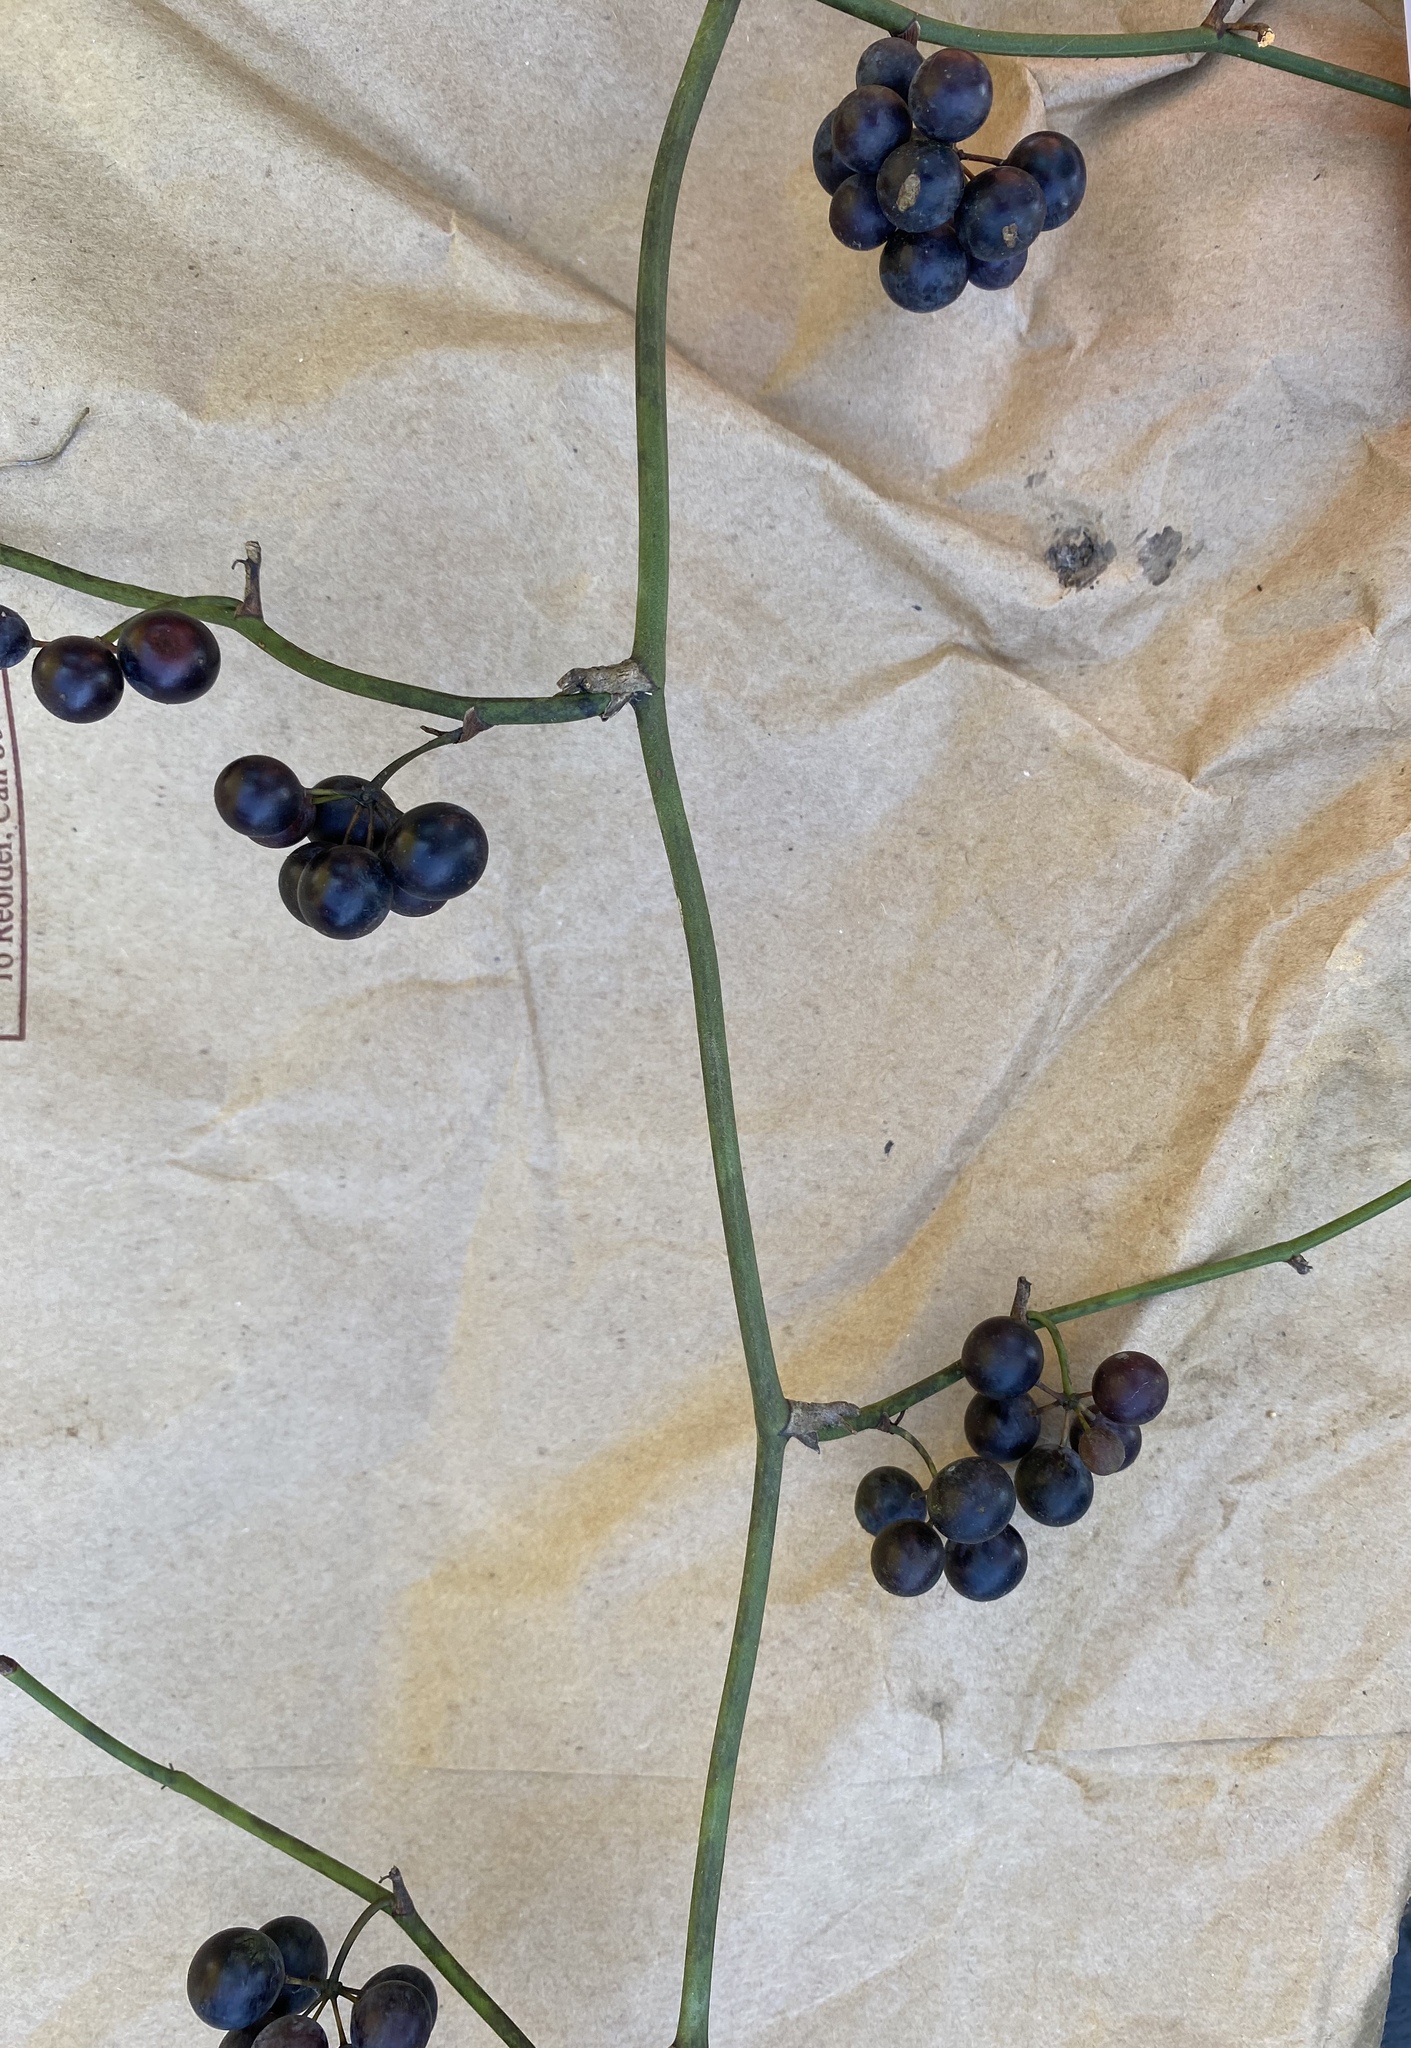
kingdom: Plantae
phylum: Tracheophyta
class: Liliopsida
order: Liliales
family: Smilacaceae
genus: Smilax
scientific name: Smilax rotundifolia
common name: Bullbriar
